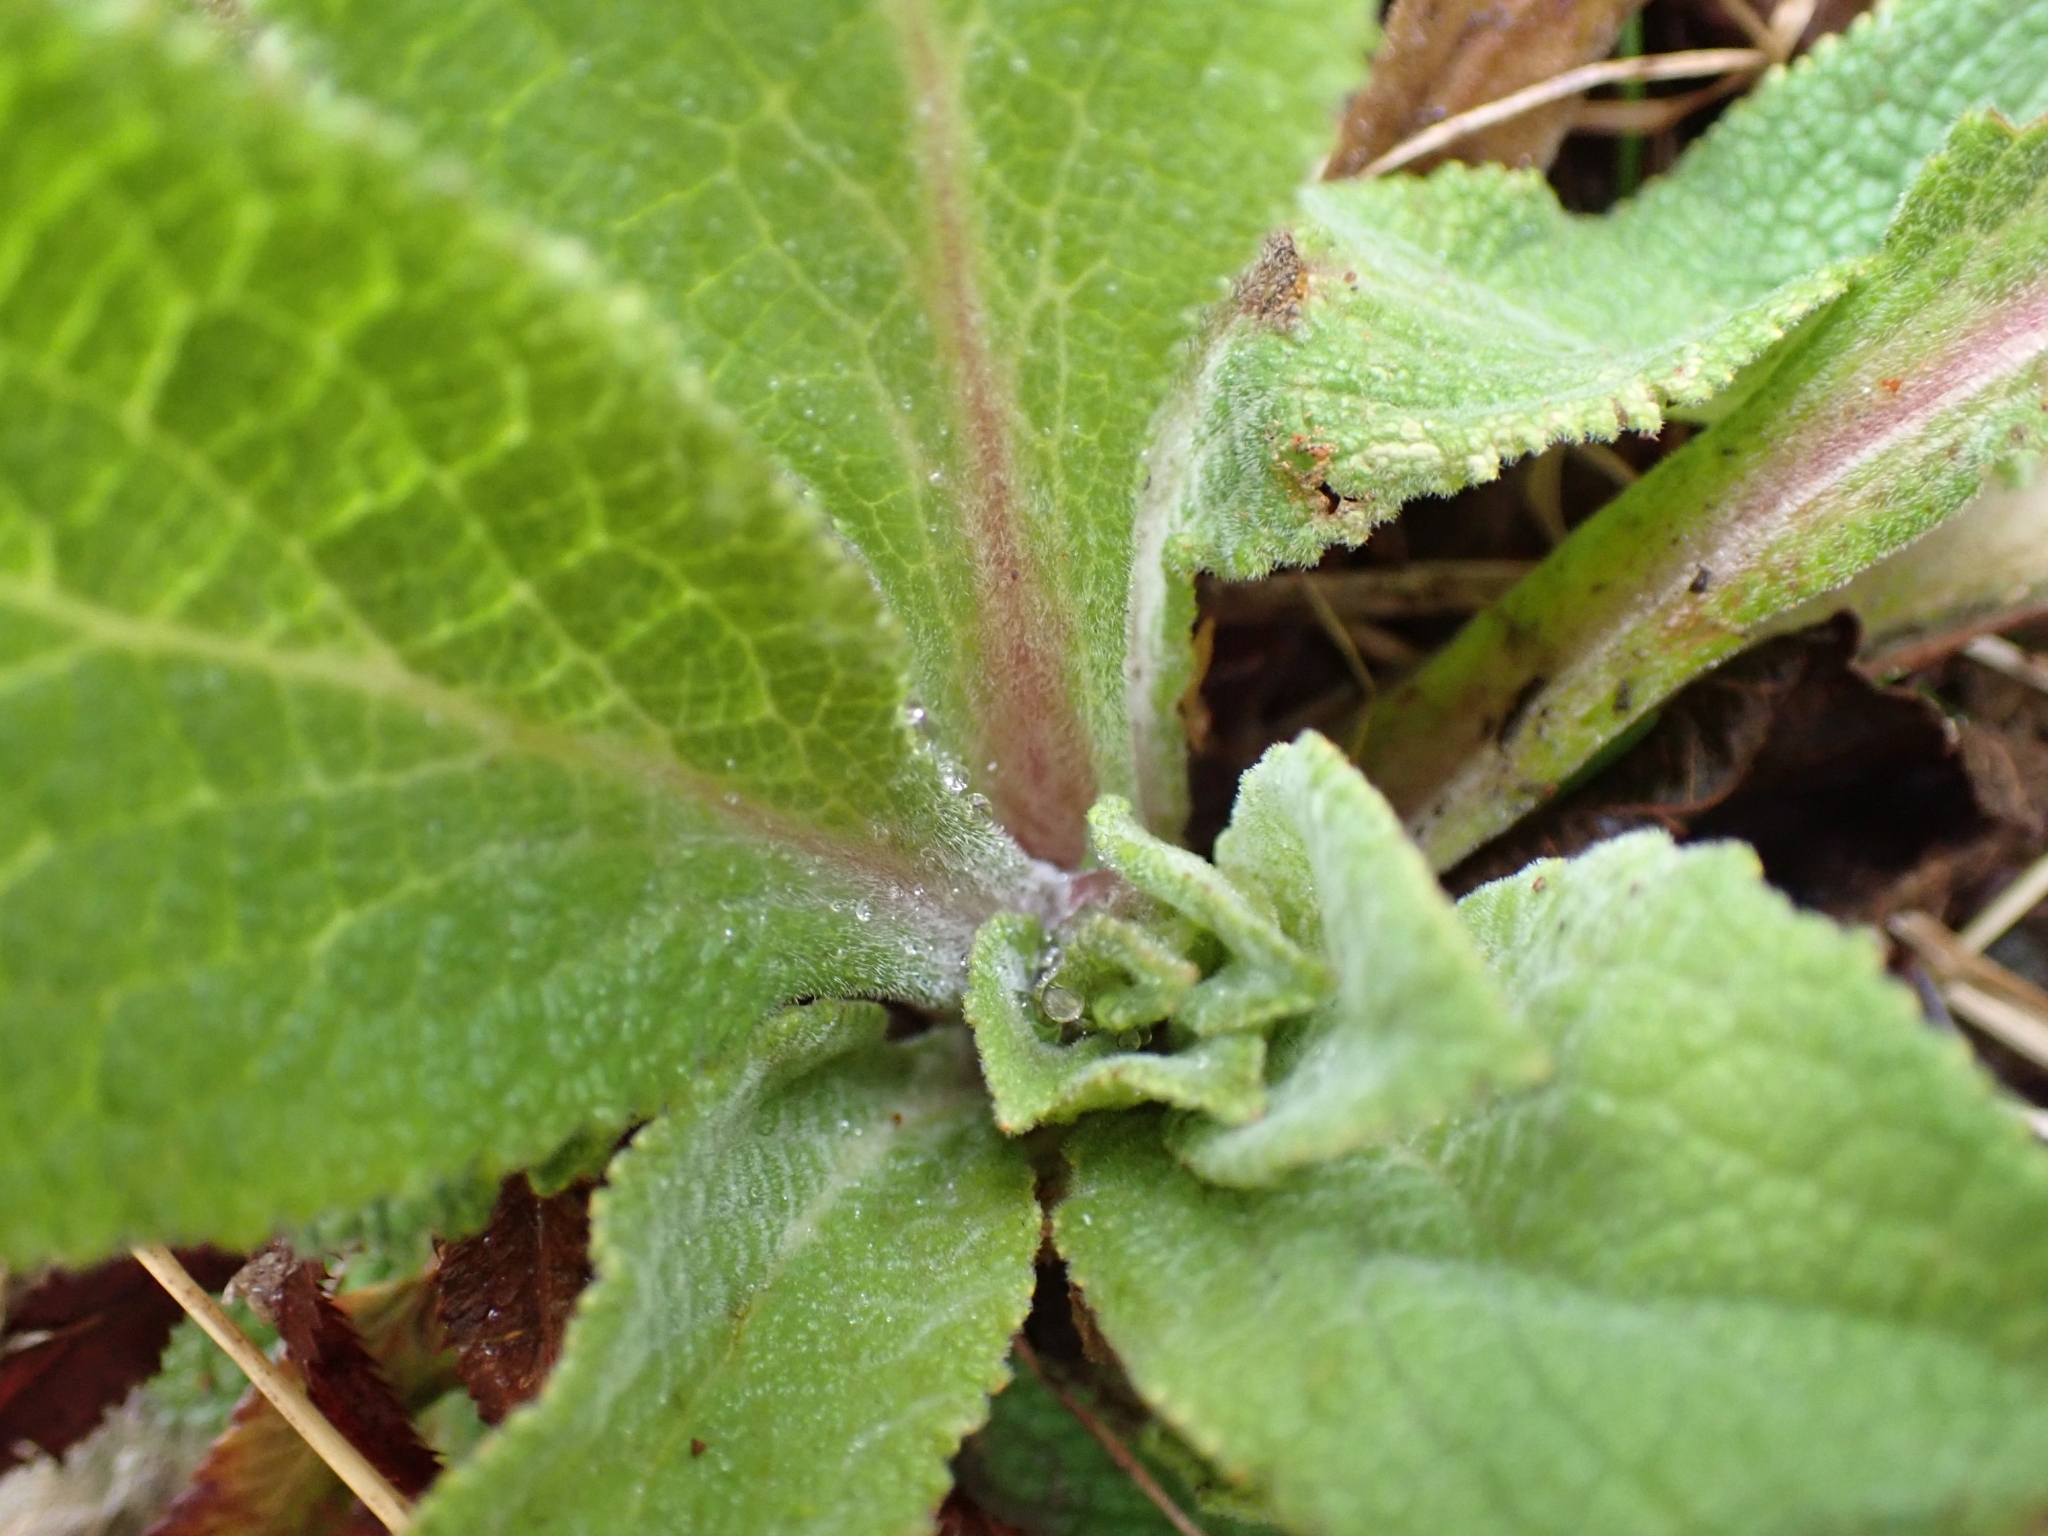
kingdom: Plantae
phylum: Tracheophyta
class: Magnoliopsida
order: Lamiales
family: Plantaginaceae
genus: Digitalis
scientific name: Digitalis purpurea
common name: Foxglove
